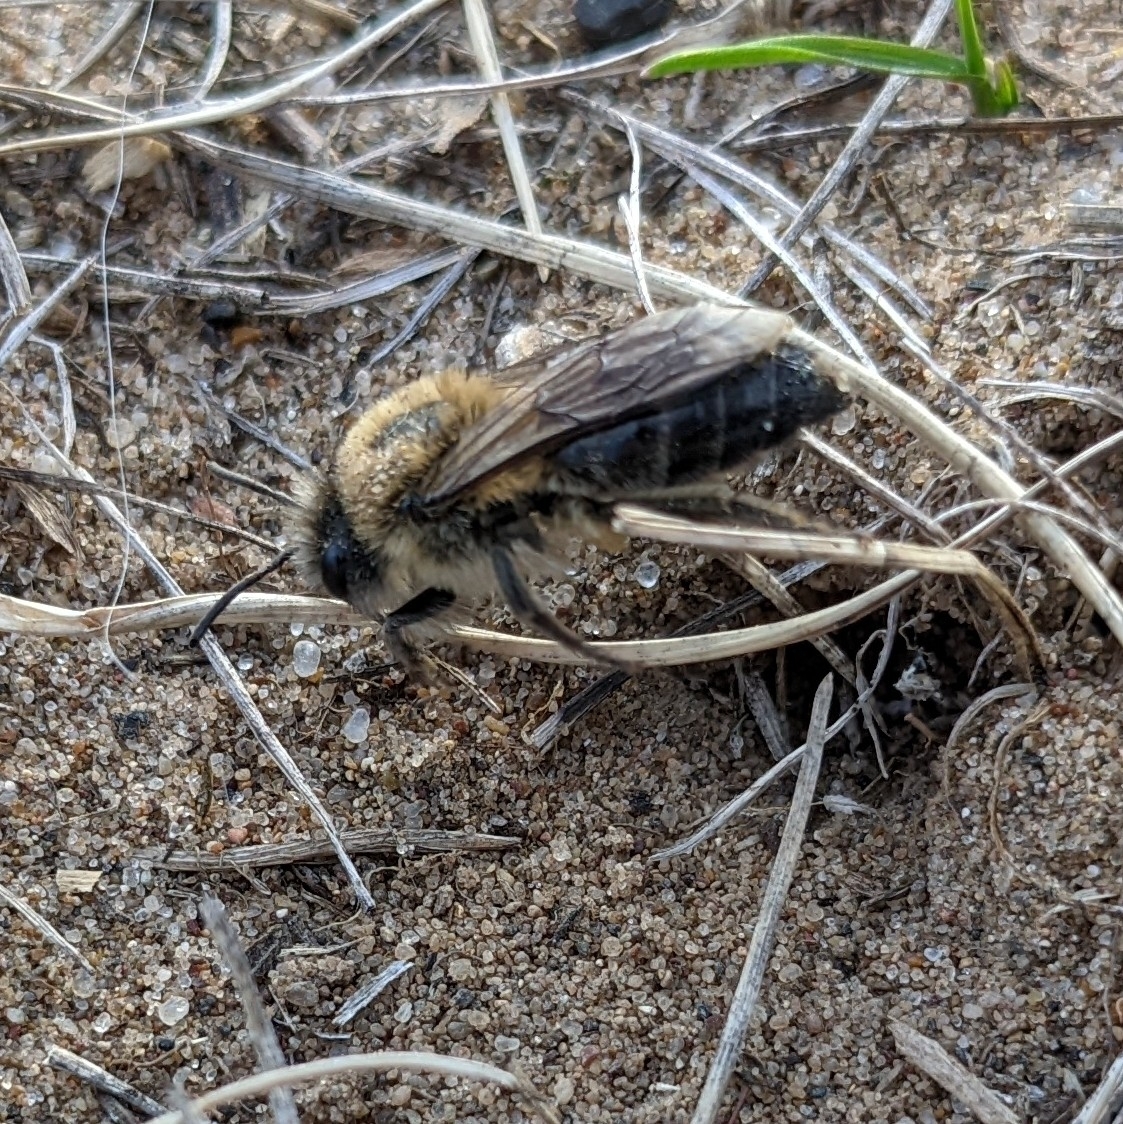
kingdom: Animalia
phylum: Arthropoda
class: Insecta
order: Hymenoptera
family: Colletidae
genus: Colletes
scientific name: Colletes cunicularius
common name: Early colletes
